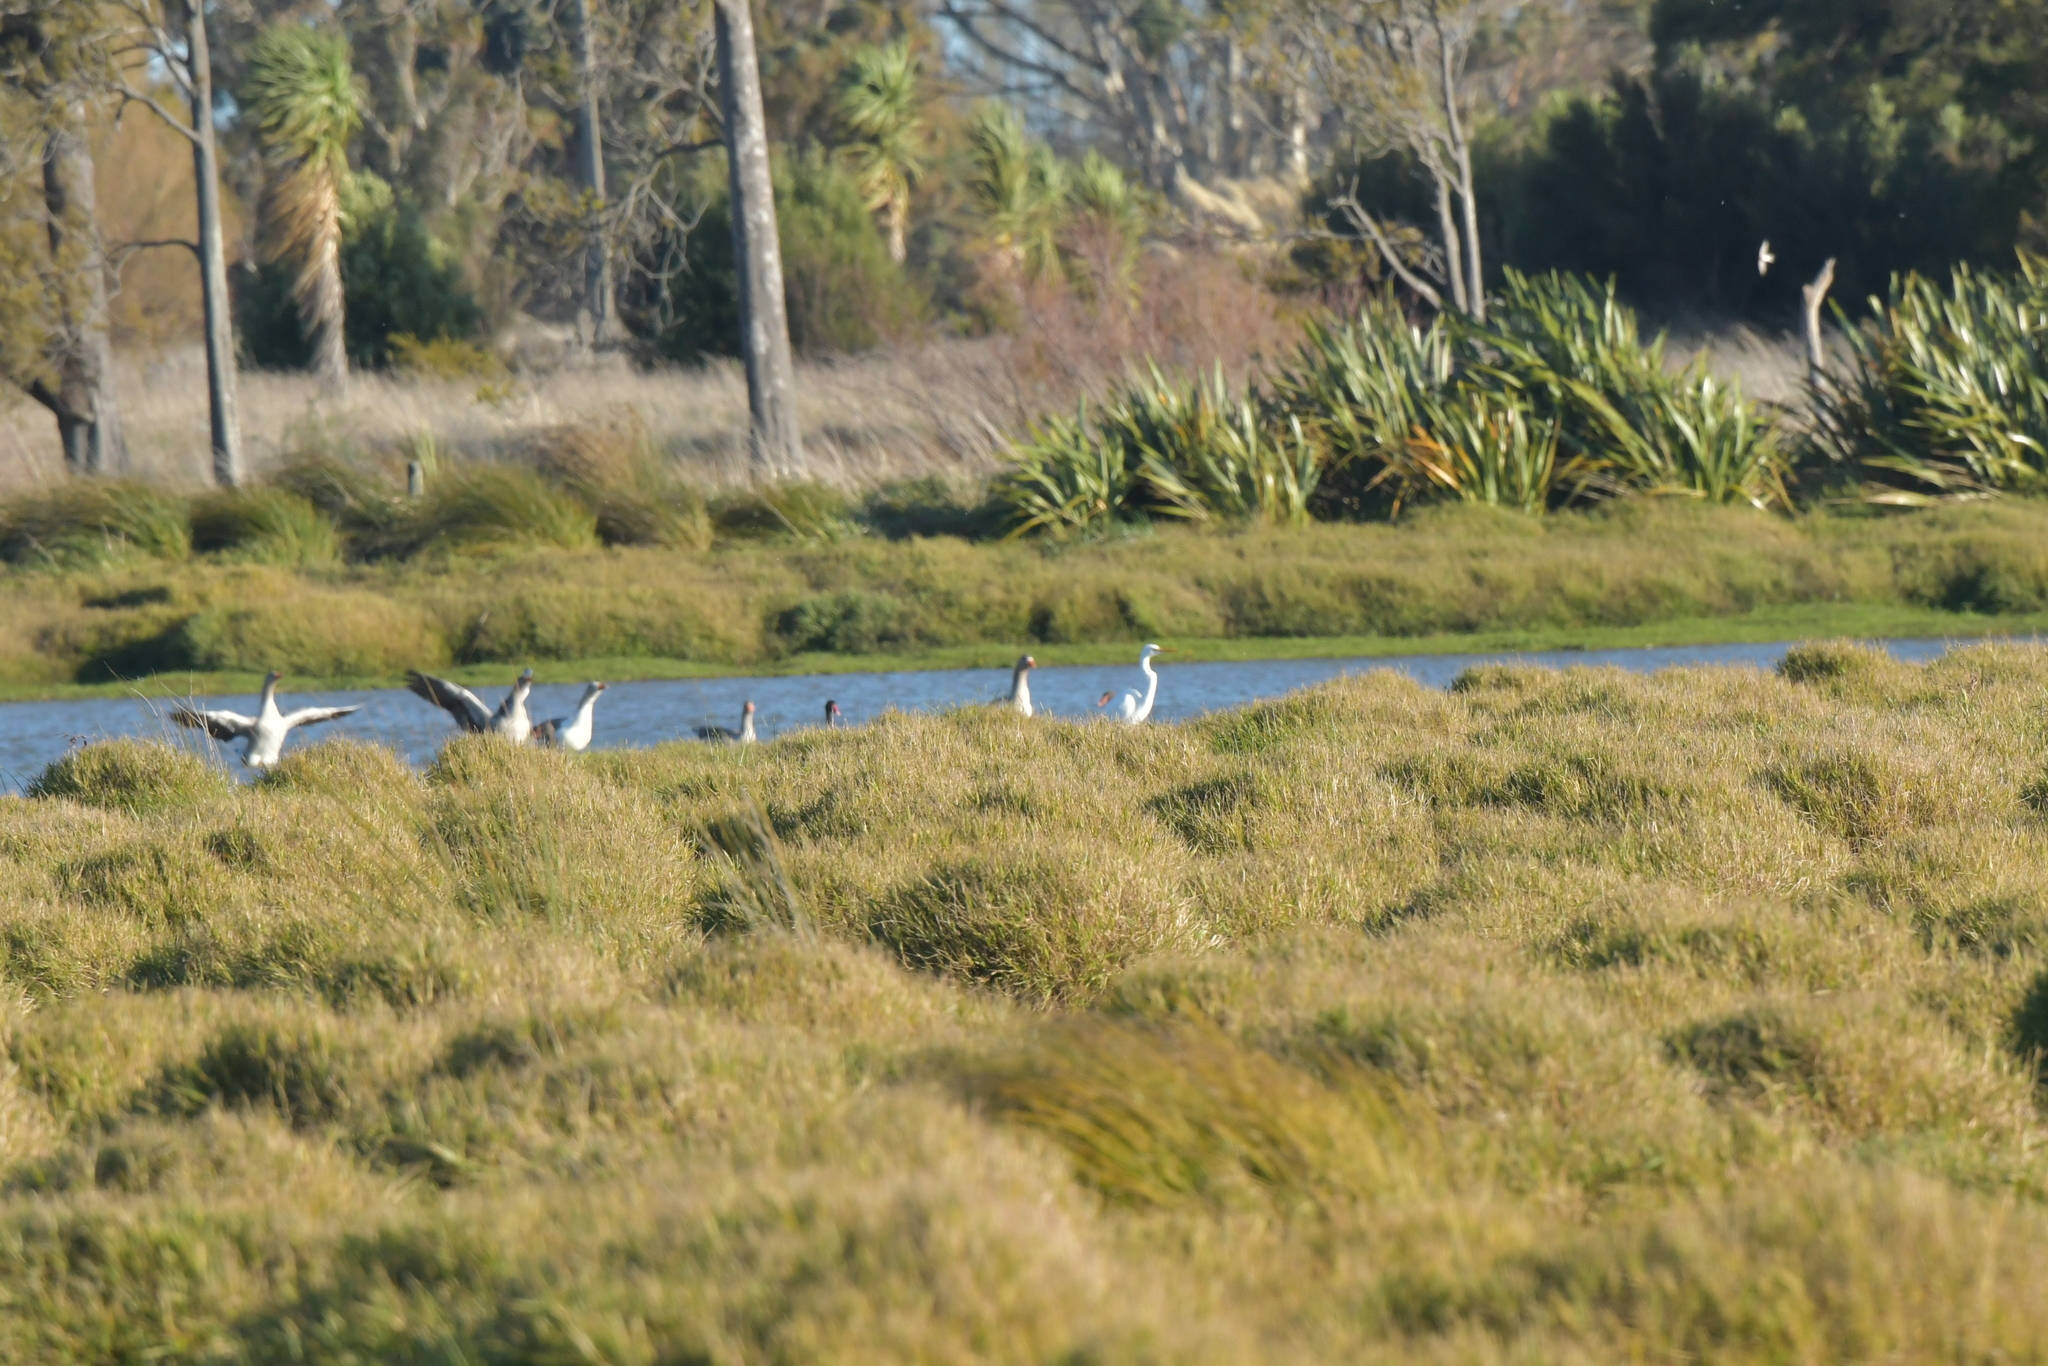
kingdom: Animalia
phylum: Chordata
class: Aves
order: Pelecaniformes
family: Ardeidae
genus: Ardea
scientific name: Ardea modesta
